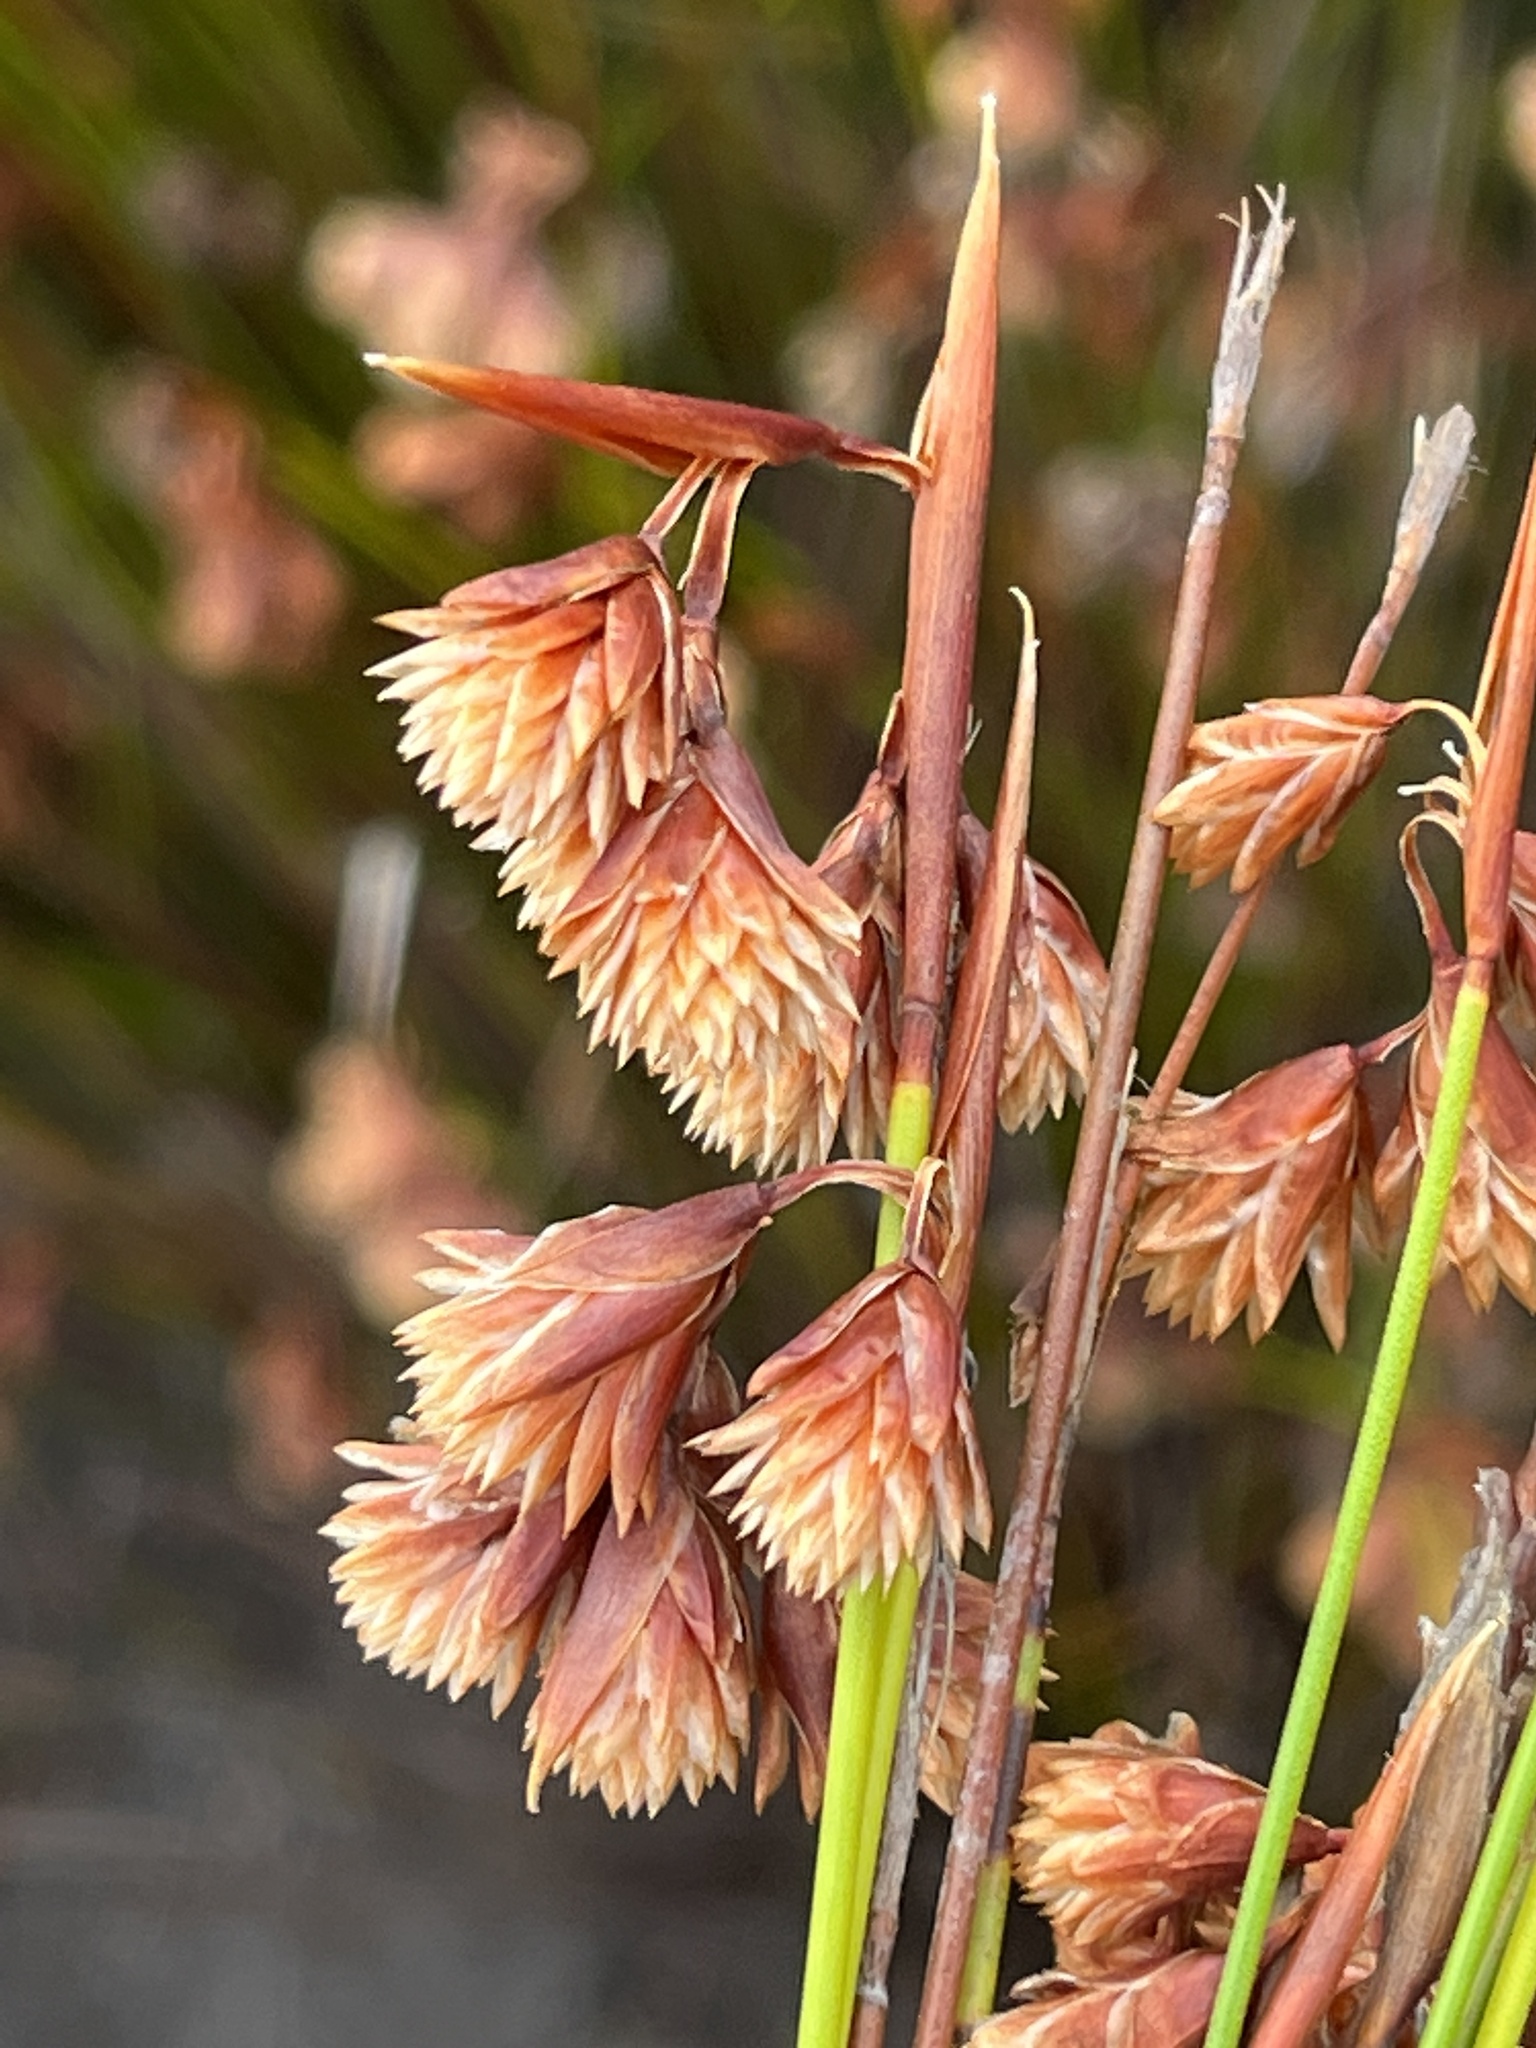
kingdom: Plantae
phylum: Tracheophyta
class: Liliopsida
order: Poales
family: Restionaceae
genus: Staberoha
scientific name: Staberoha aemula
